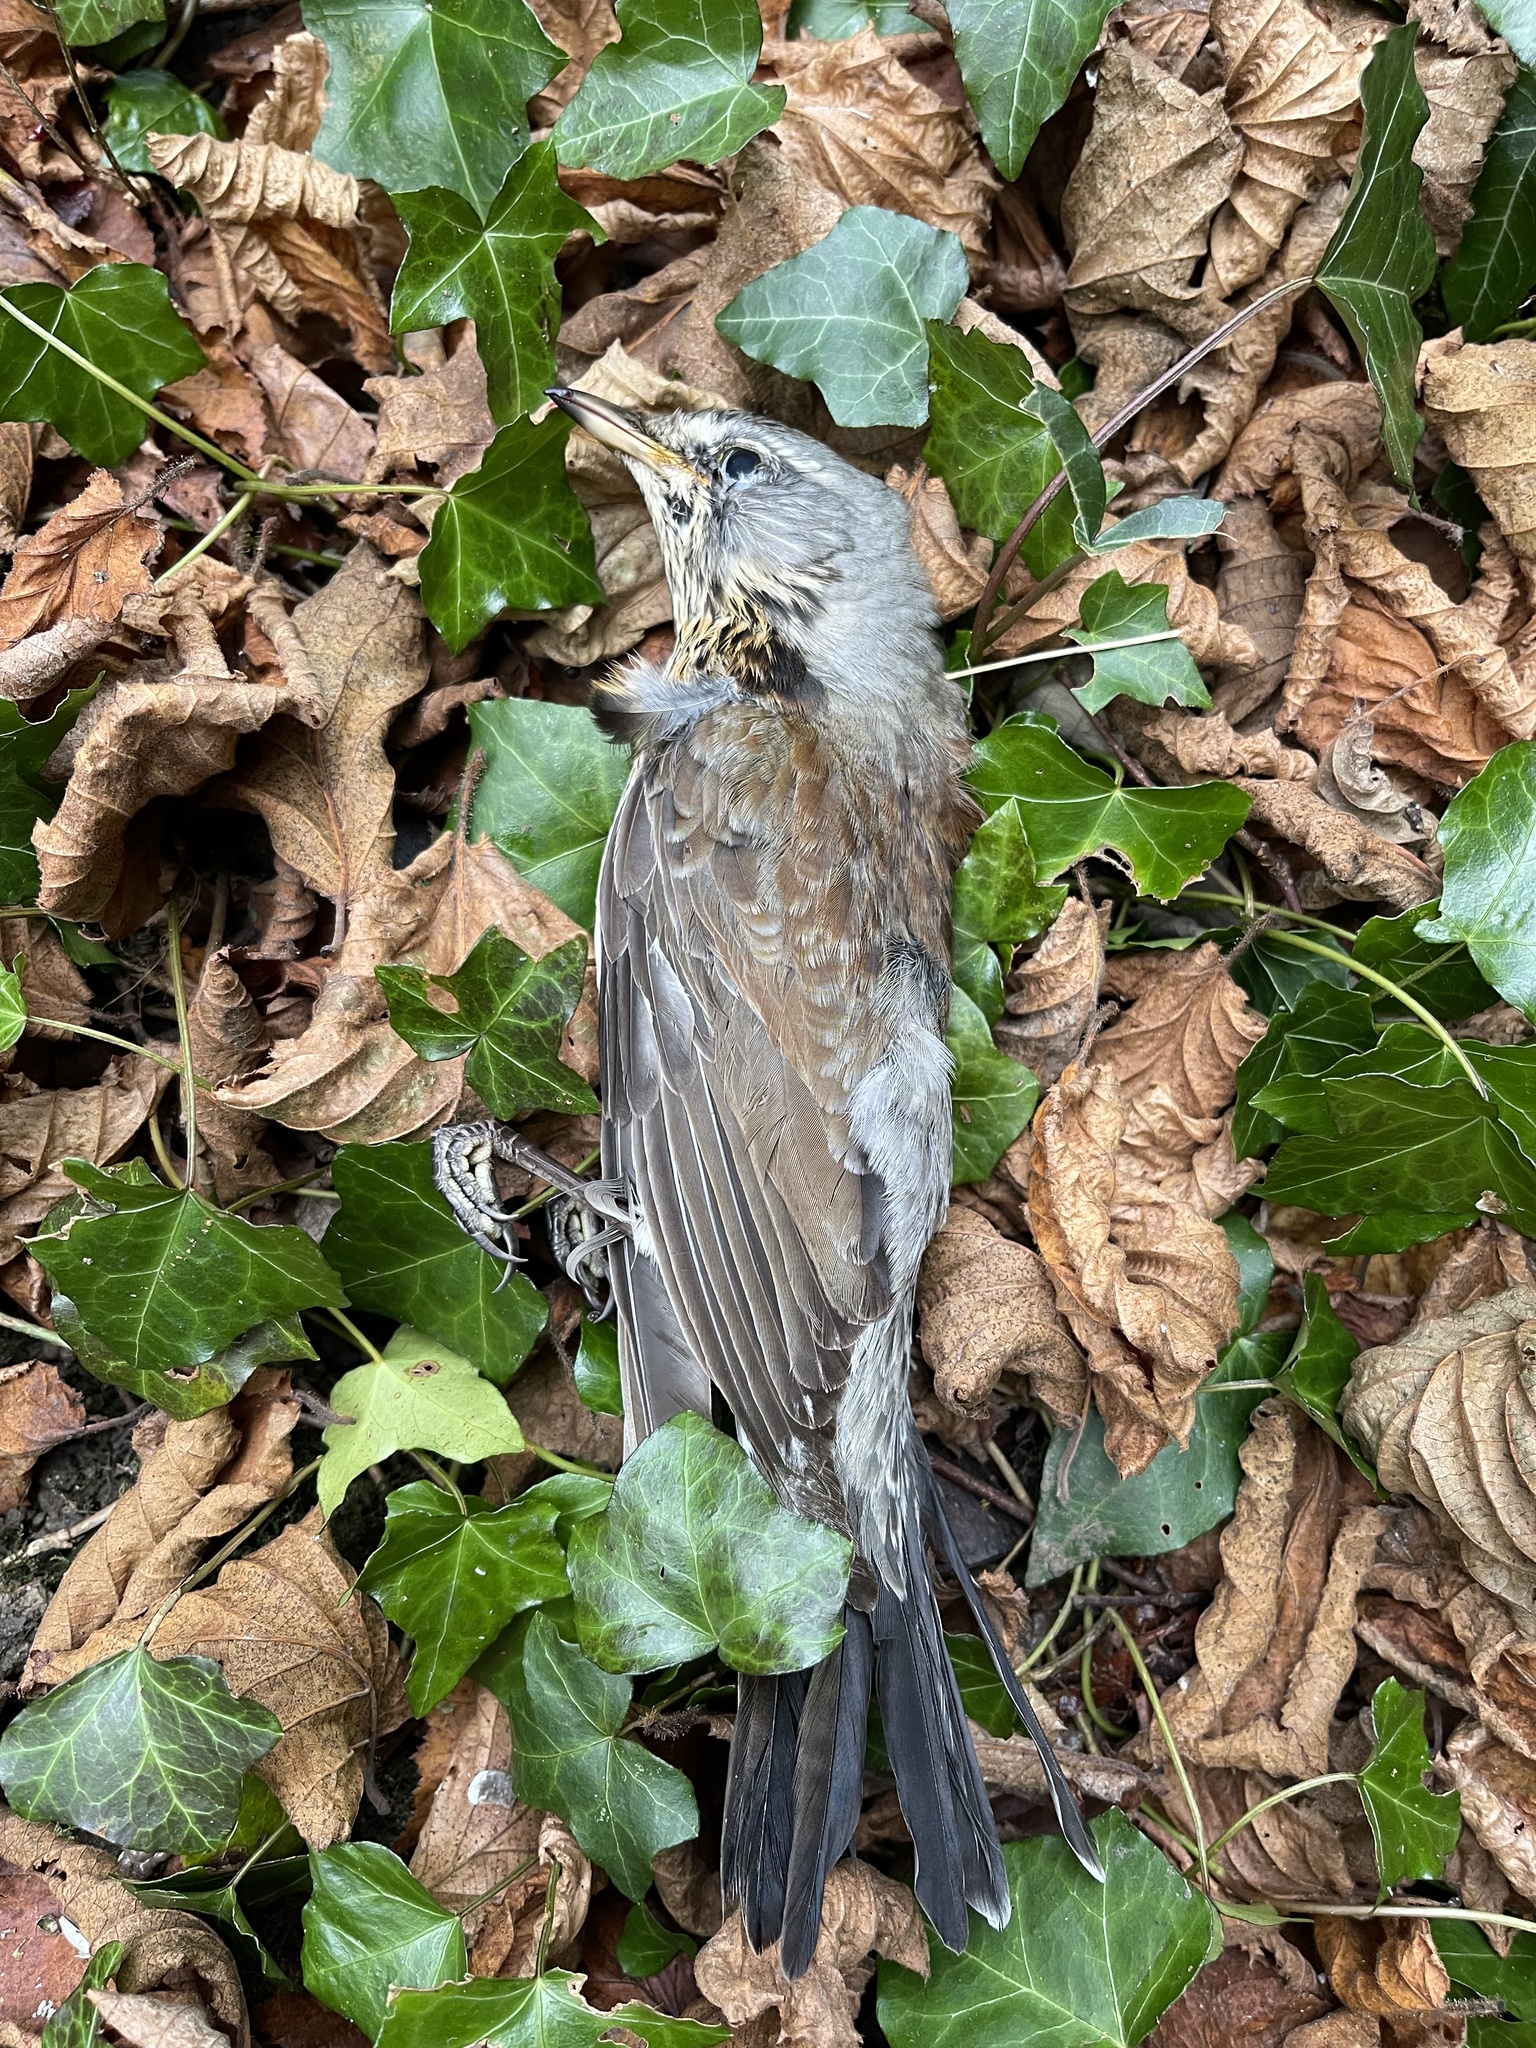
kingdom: Animalia
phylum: Chordata
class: Aves
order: Passeriformes
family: Turdidae
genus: Turdus
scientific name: Turdus pilaris
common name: Fieldfare
